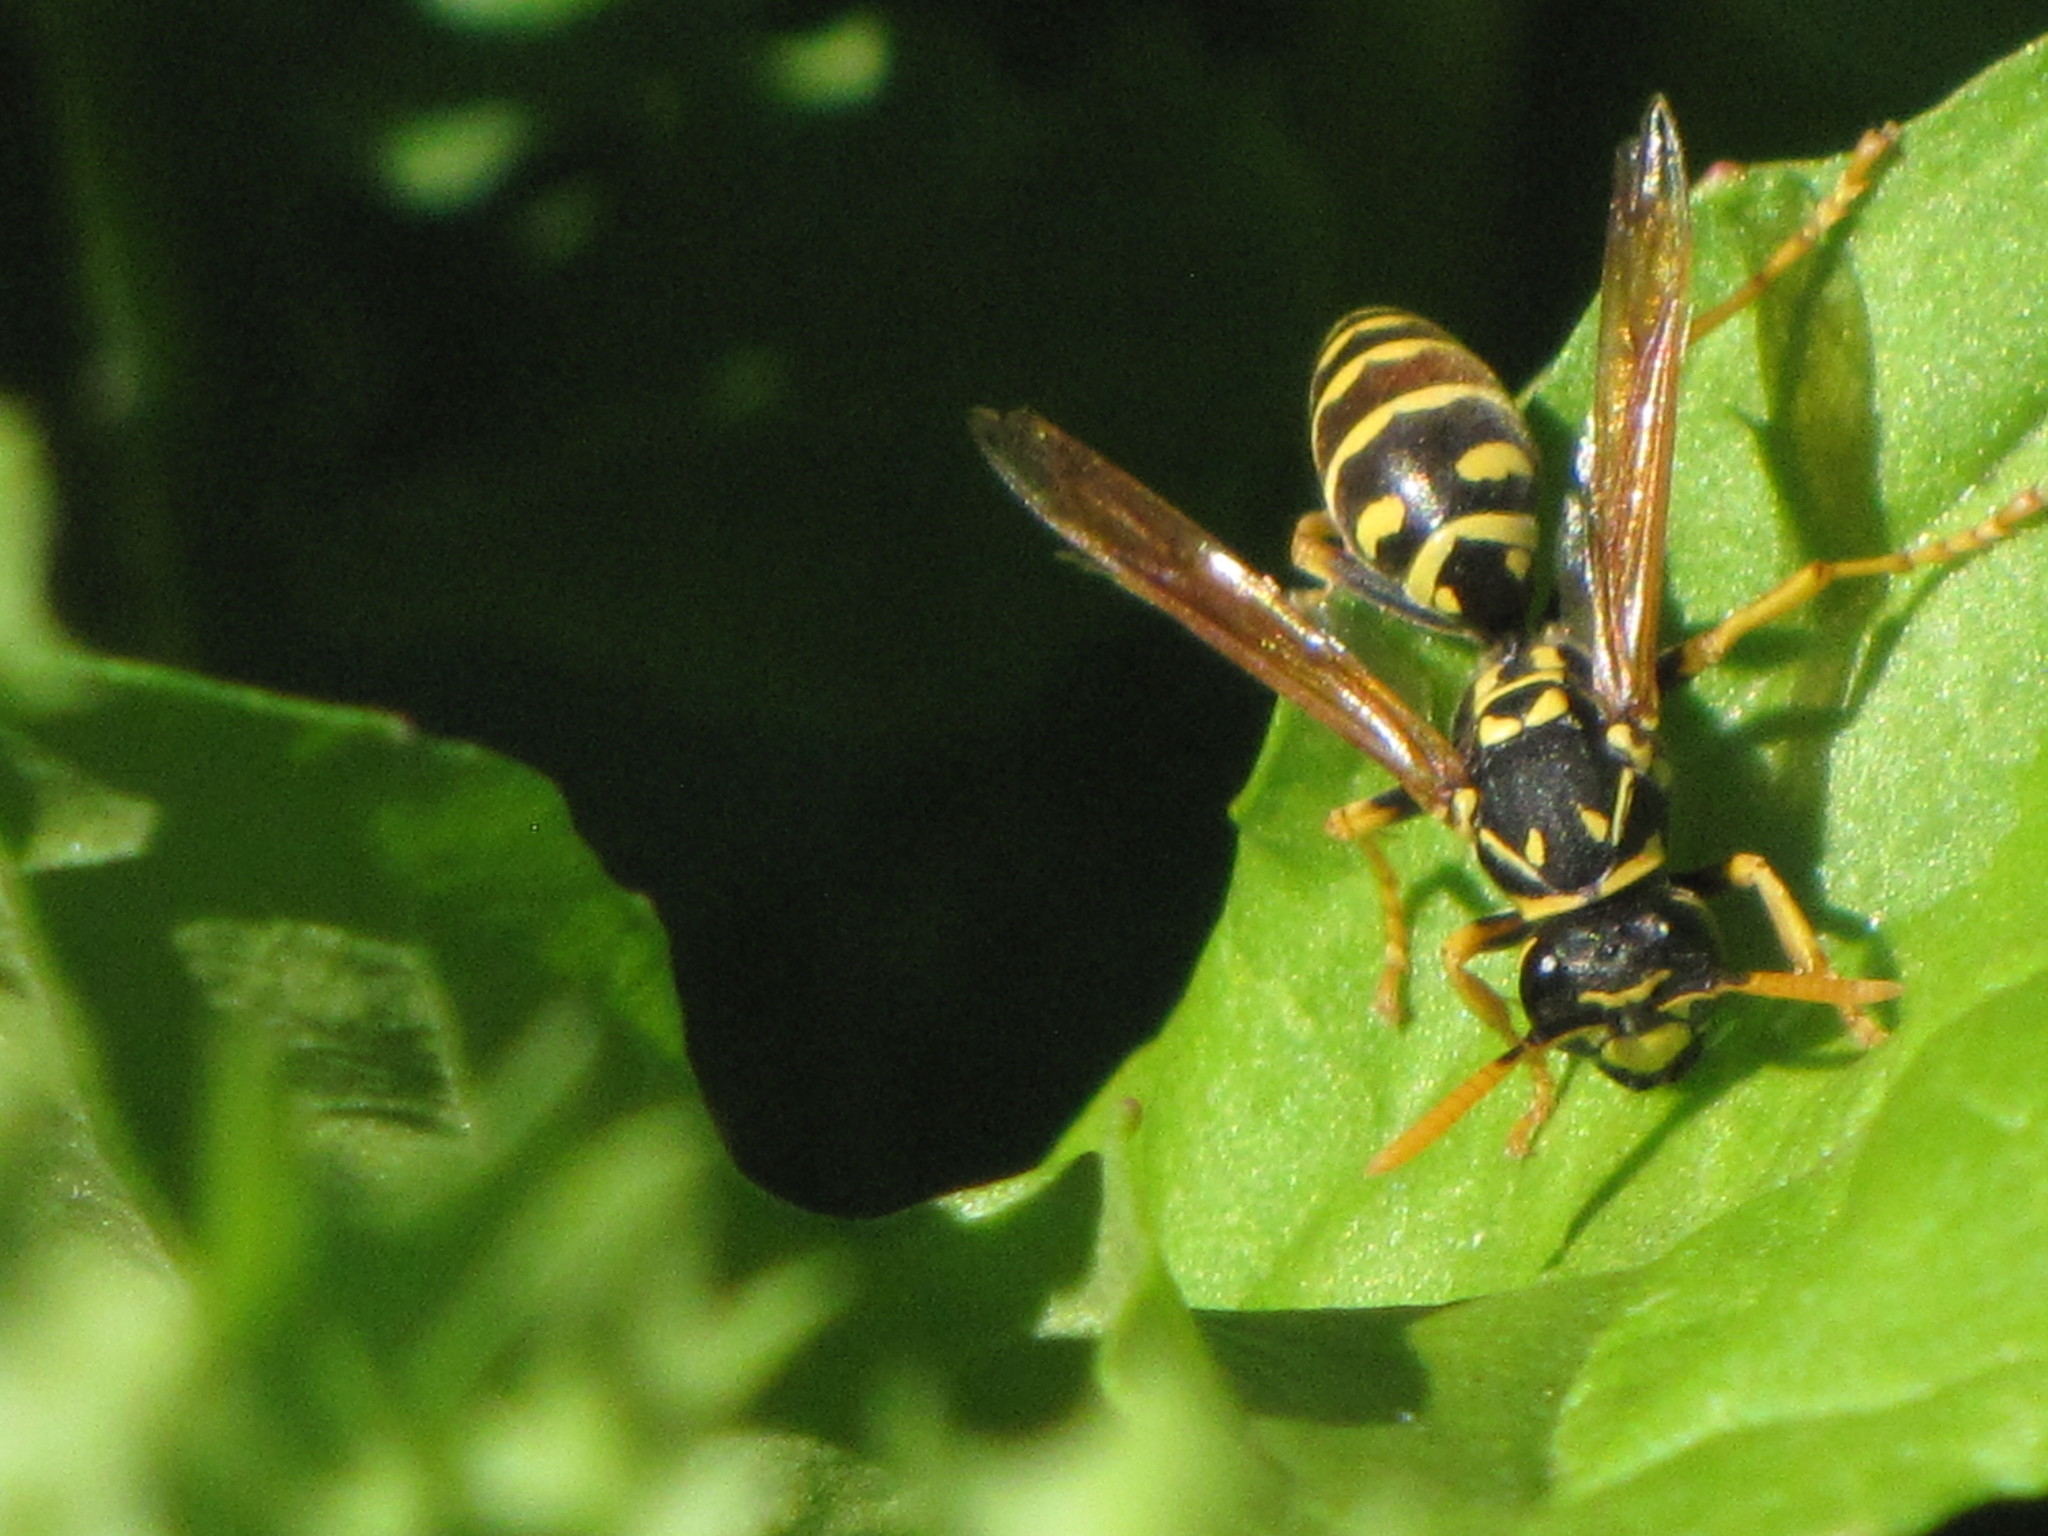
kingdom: Animalia
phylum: Arthropoda
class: Insecta
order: Hymenoptera
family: Eumenidae
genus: Polistes
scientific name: Polistes dominula
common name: Paper wasp
